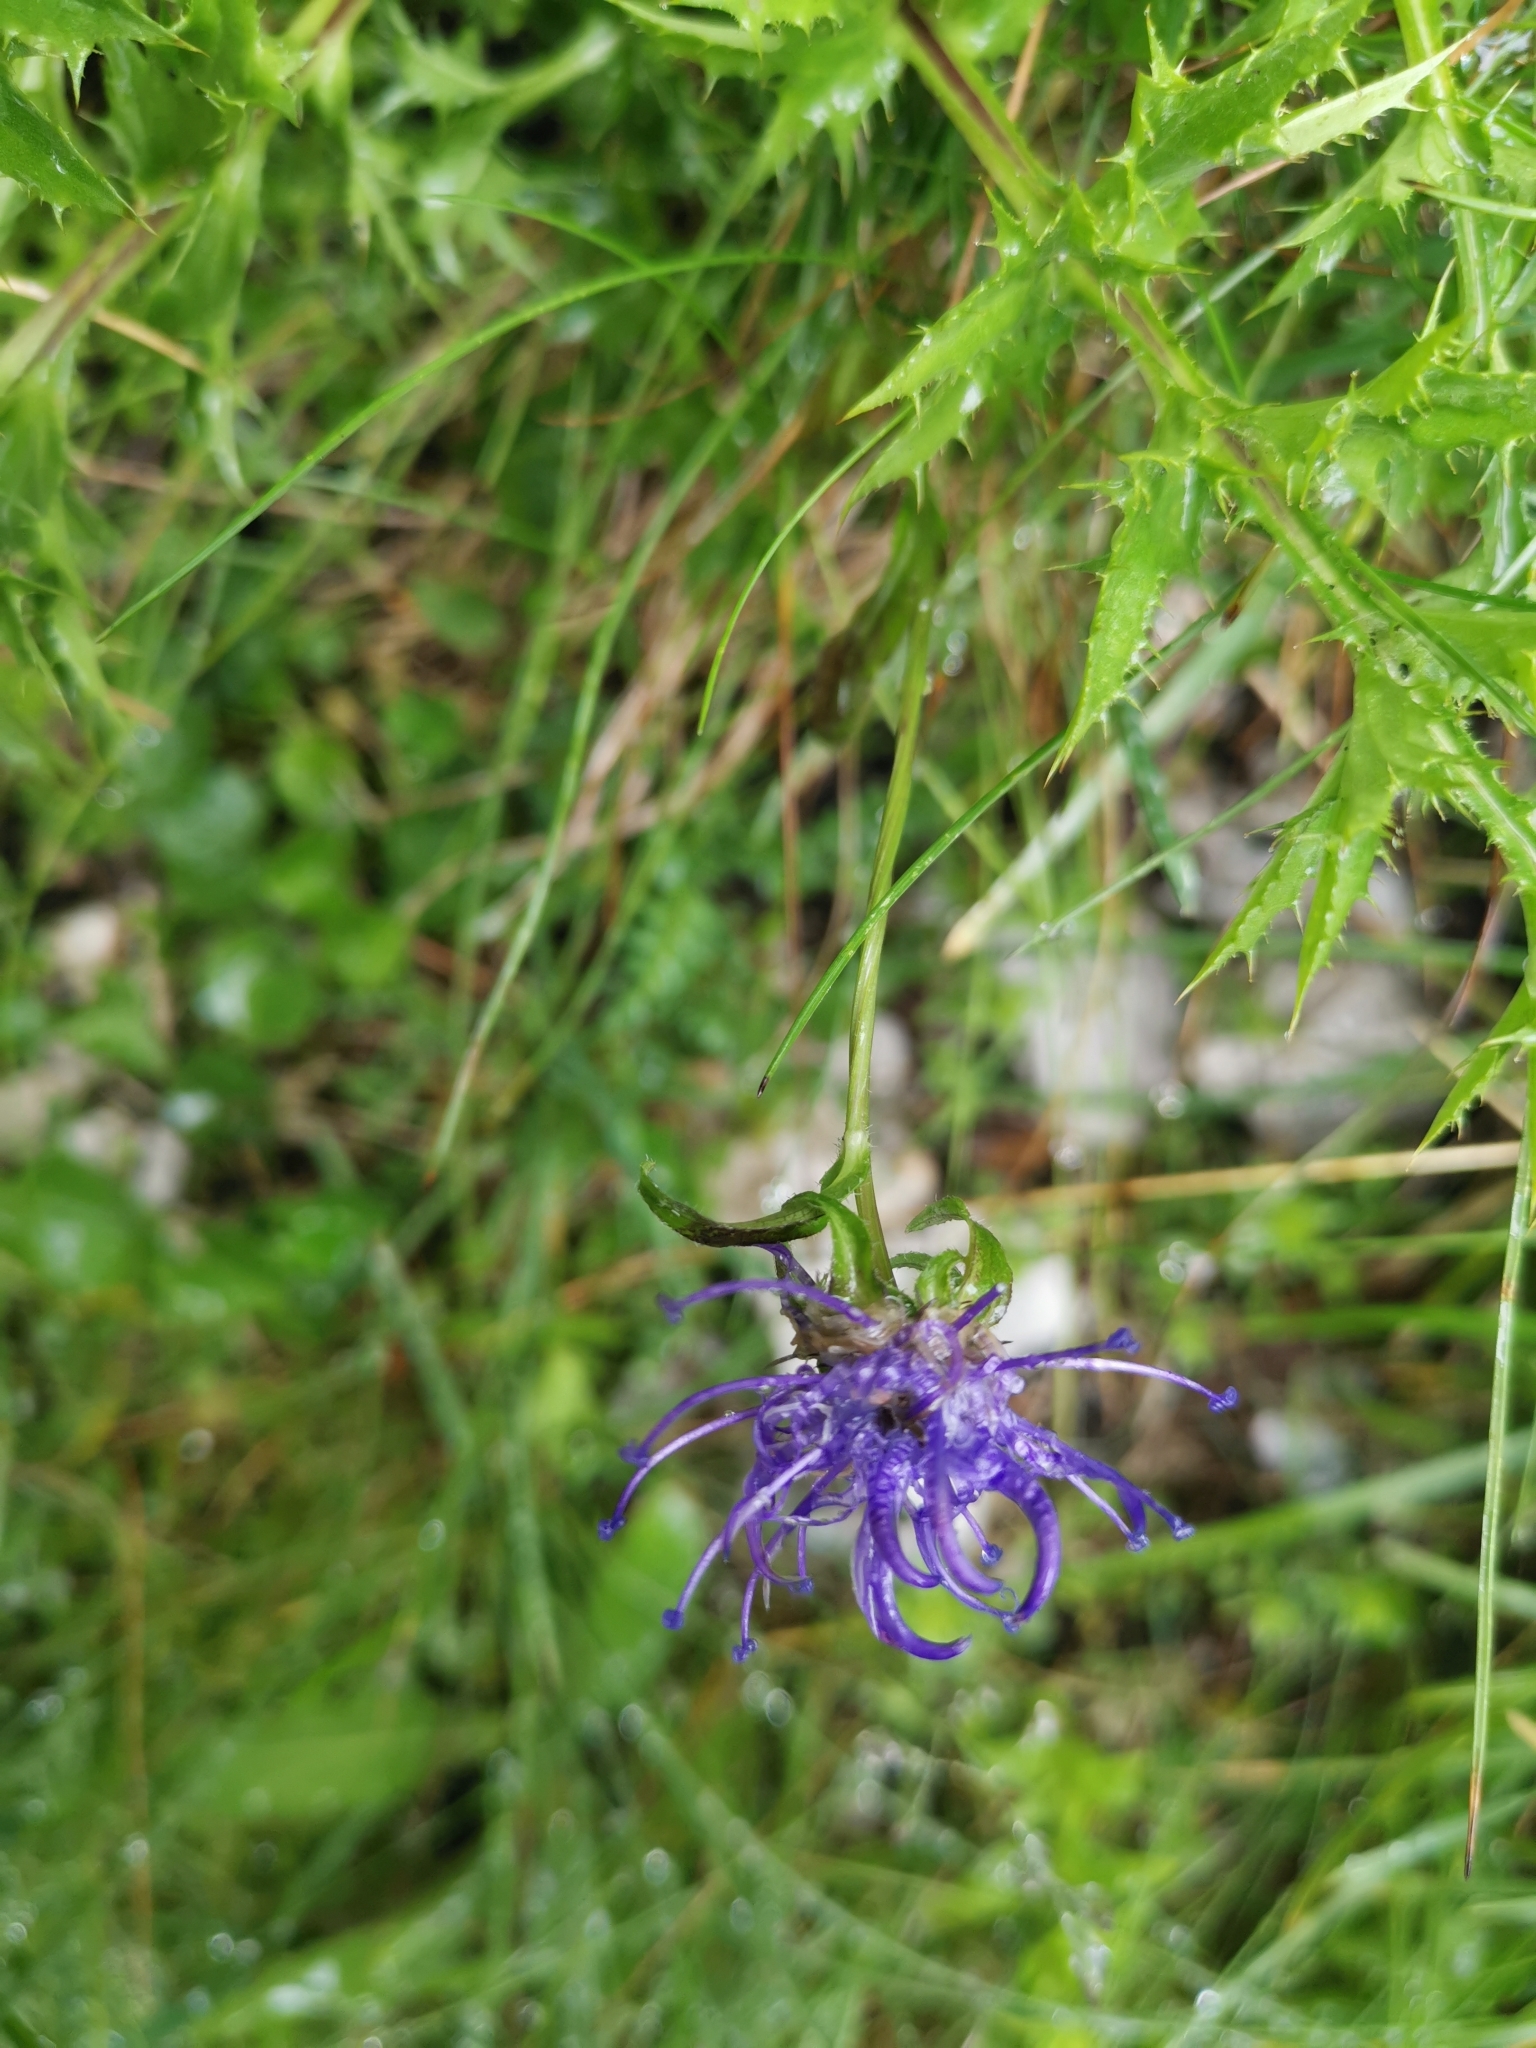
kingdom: Plantae
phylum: Tracheophyta
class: Magnoliopsida
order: Asterales
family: Campanulaceae
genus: Phyteuma
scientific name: Phyteuma orbiculare
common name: Round-headed rampion
